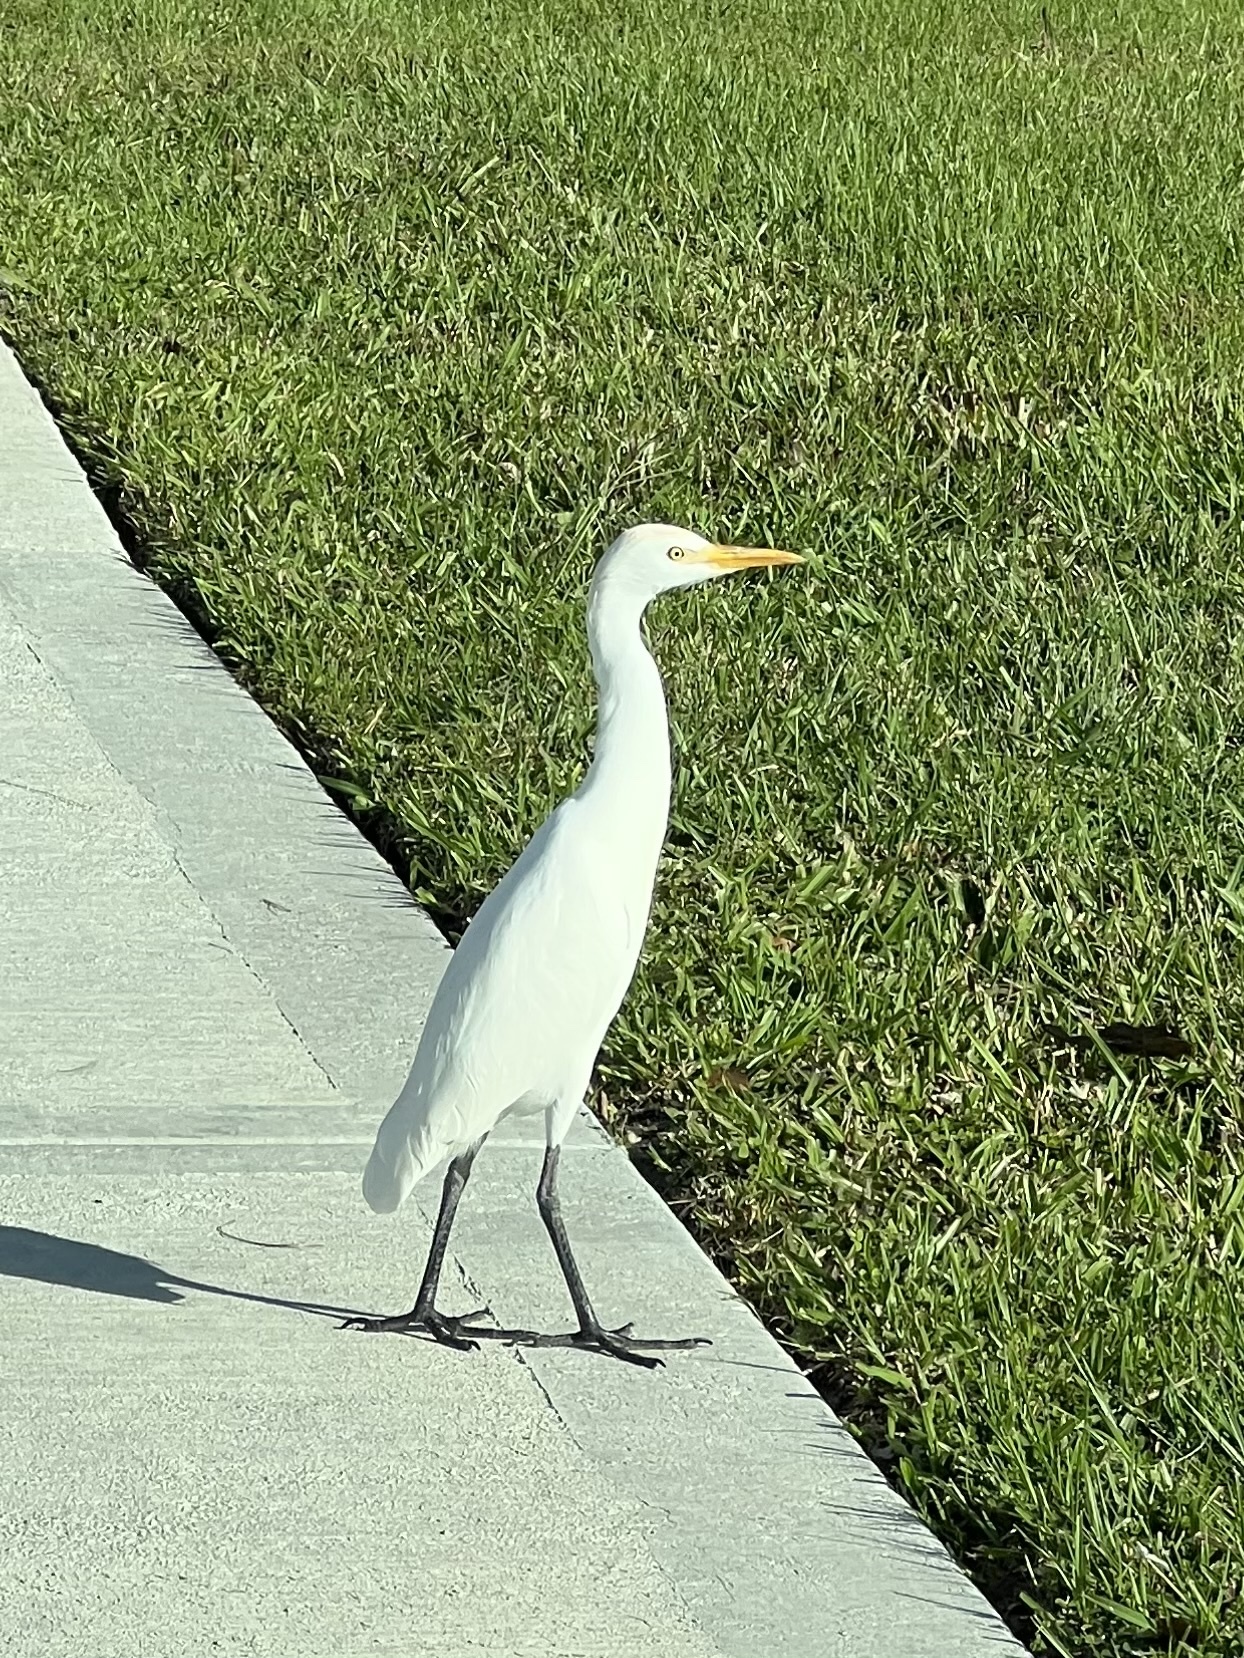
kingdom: Animalia
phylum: Chordata
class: Aves
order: Pelecaniformes
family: Ardeidae
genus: Bubulcus
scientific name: Bubulcus ibis
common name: Cattle egret
